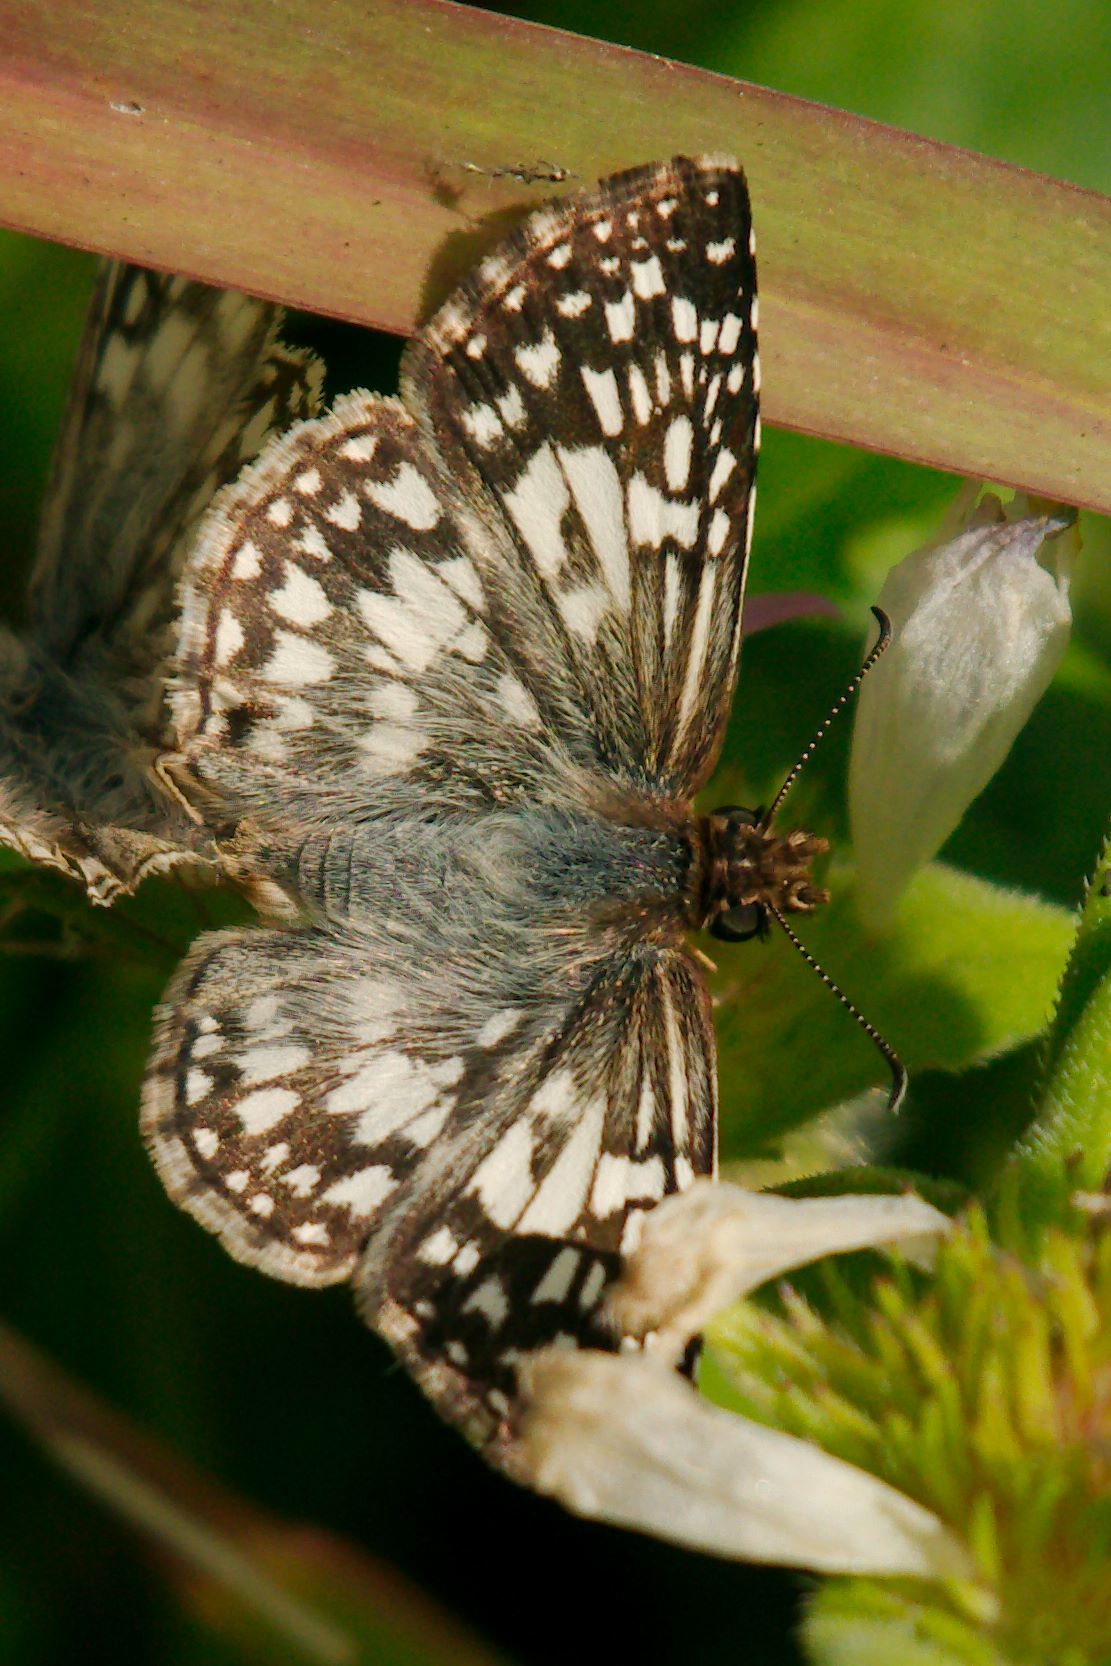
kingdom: Animalia
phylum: Arthropoda
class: Insecta
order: Lepidoptera
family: Hesperiidae
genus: Pyrgus
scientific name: Pyrgus oileus
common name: Tropical checkered-skipper
